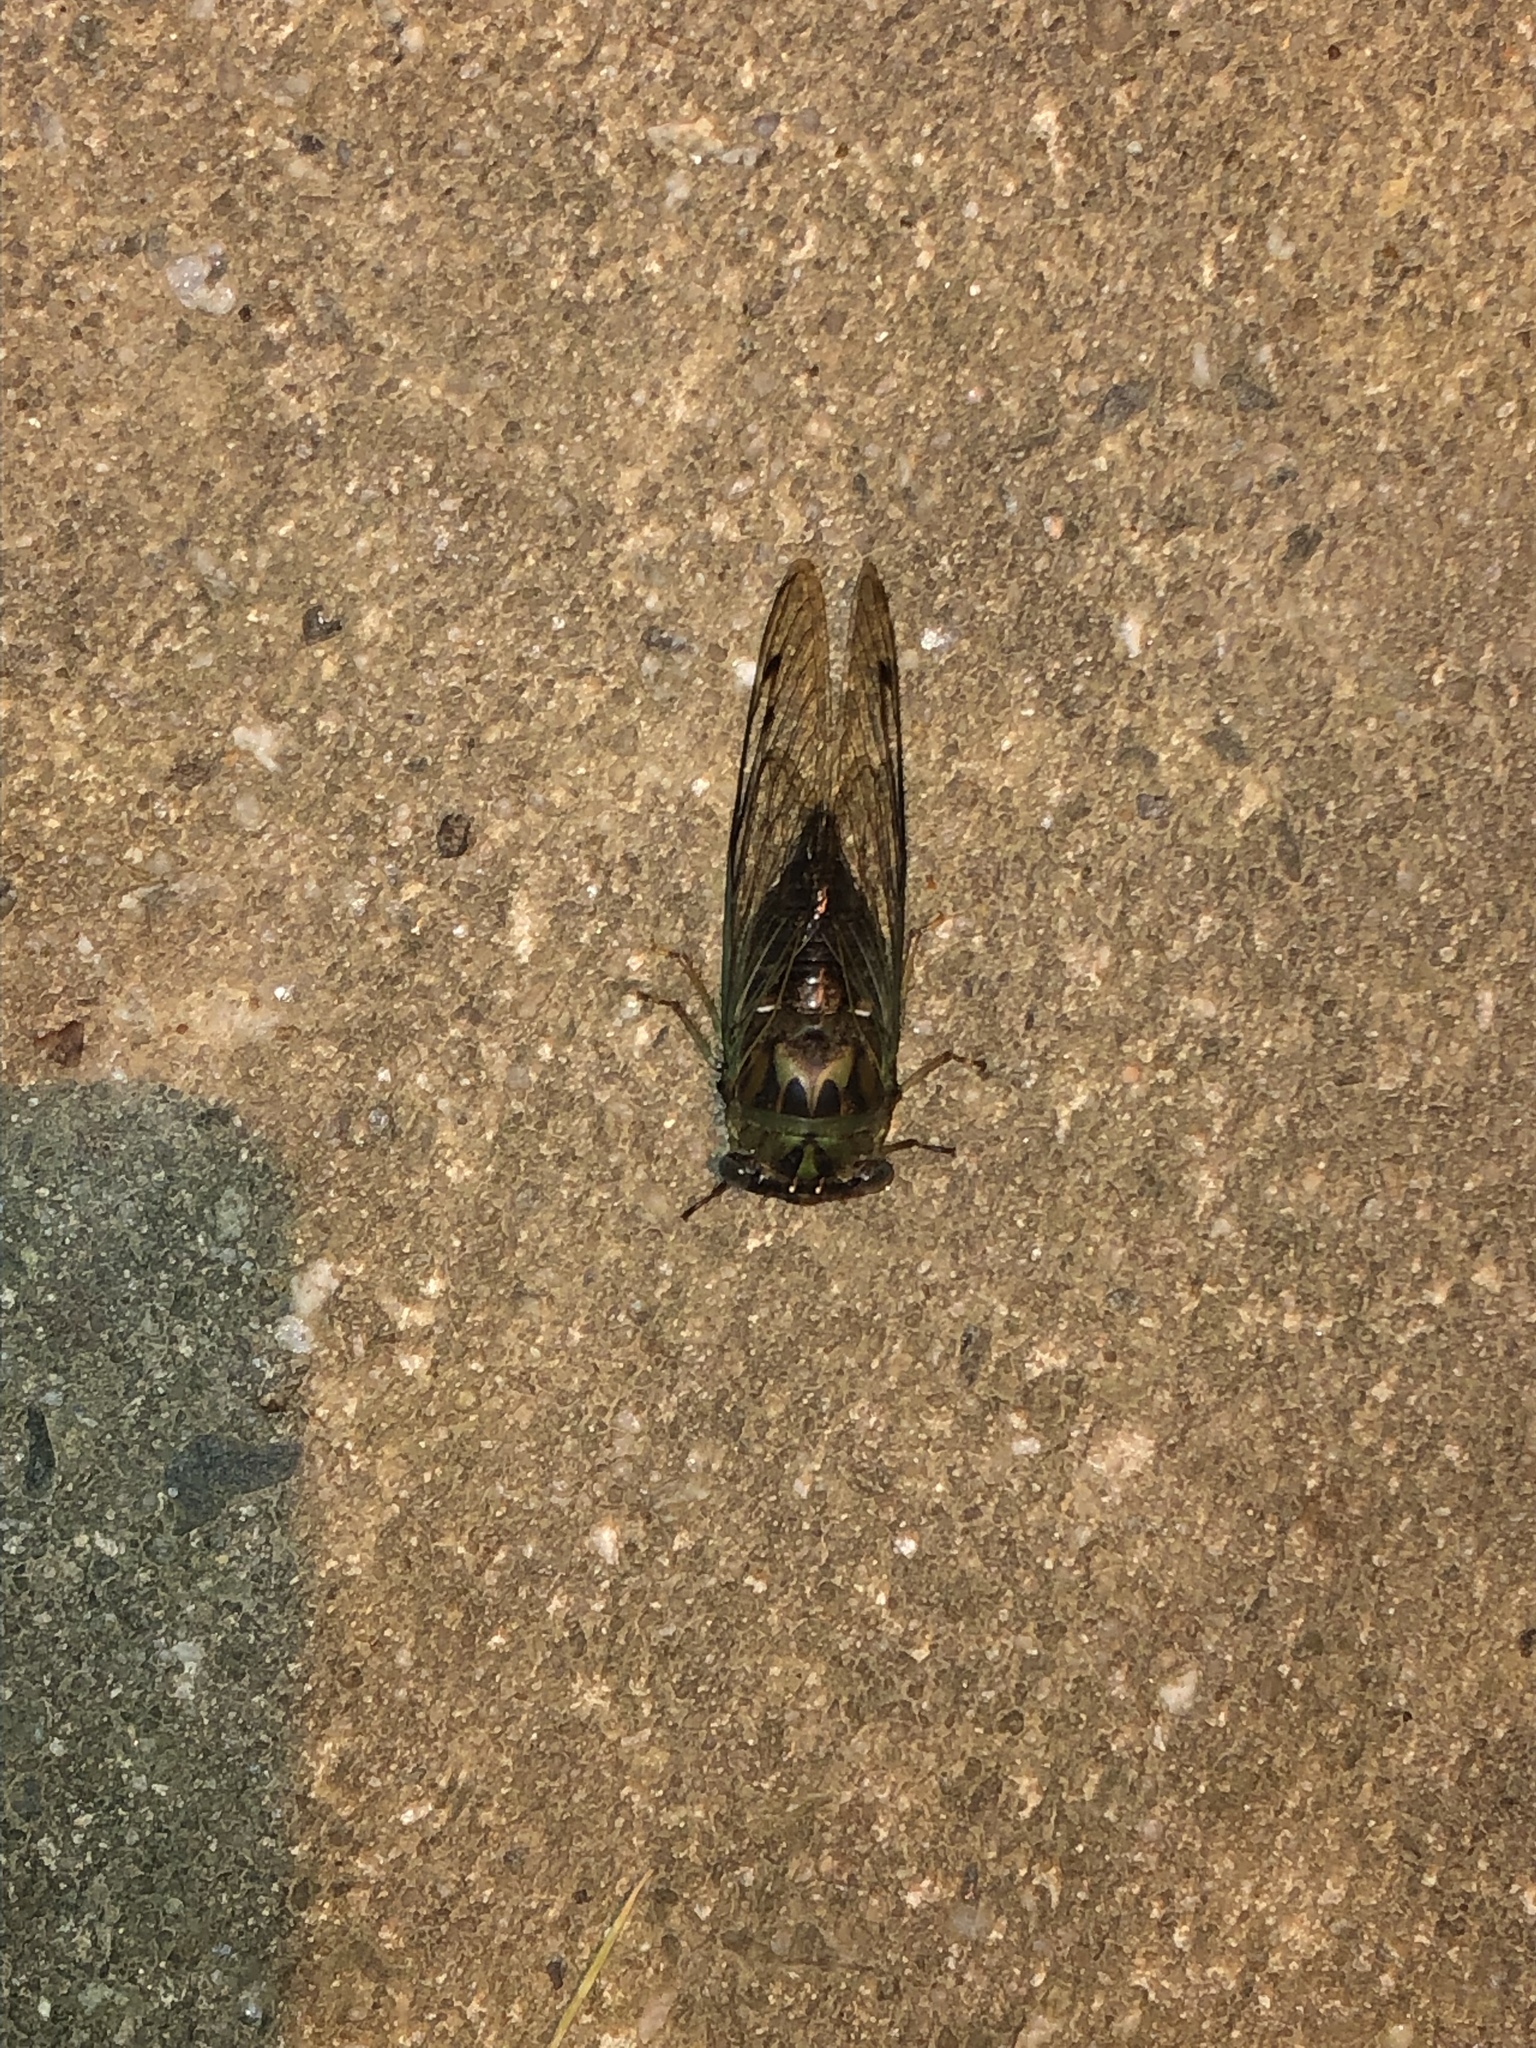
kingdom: Animalia
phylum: Arthropoda
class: Insecta
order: Hemiptera
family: Cicadidae
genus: Neotibicen
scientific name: Neotibicen winnemanna
